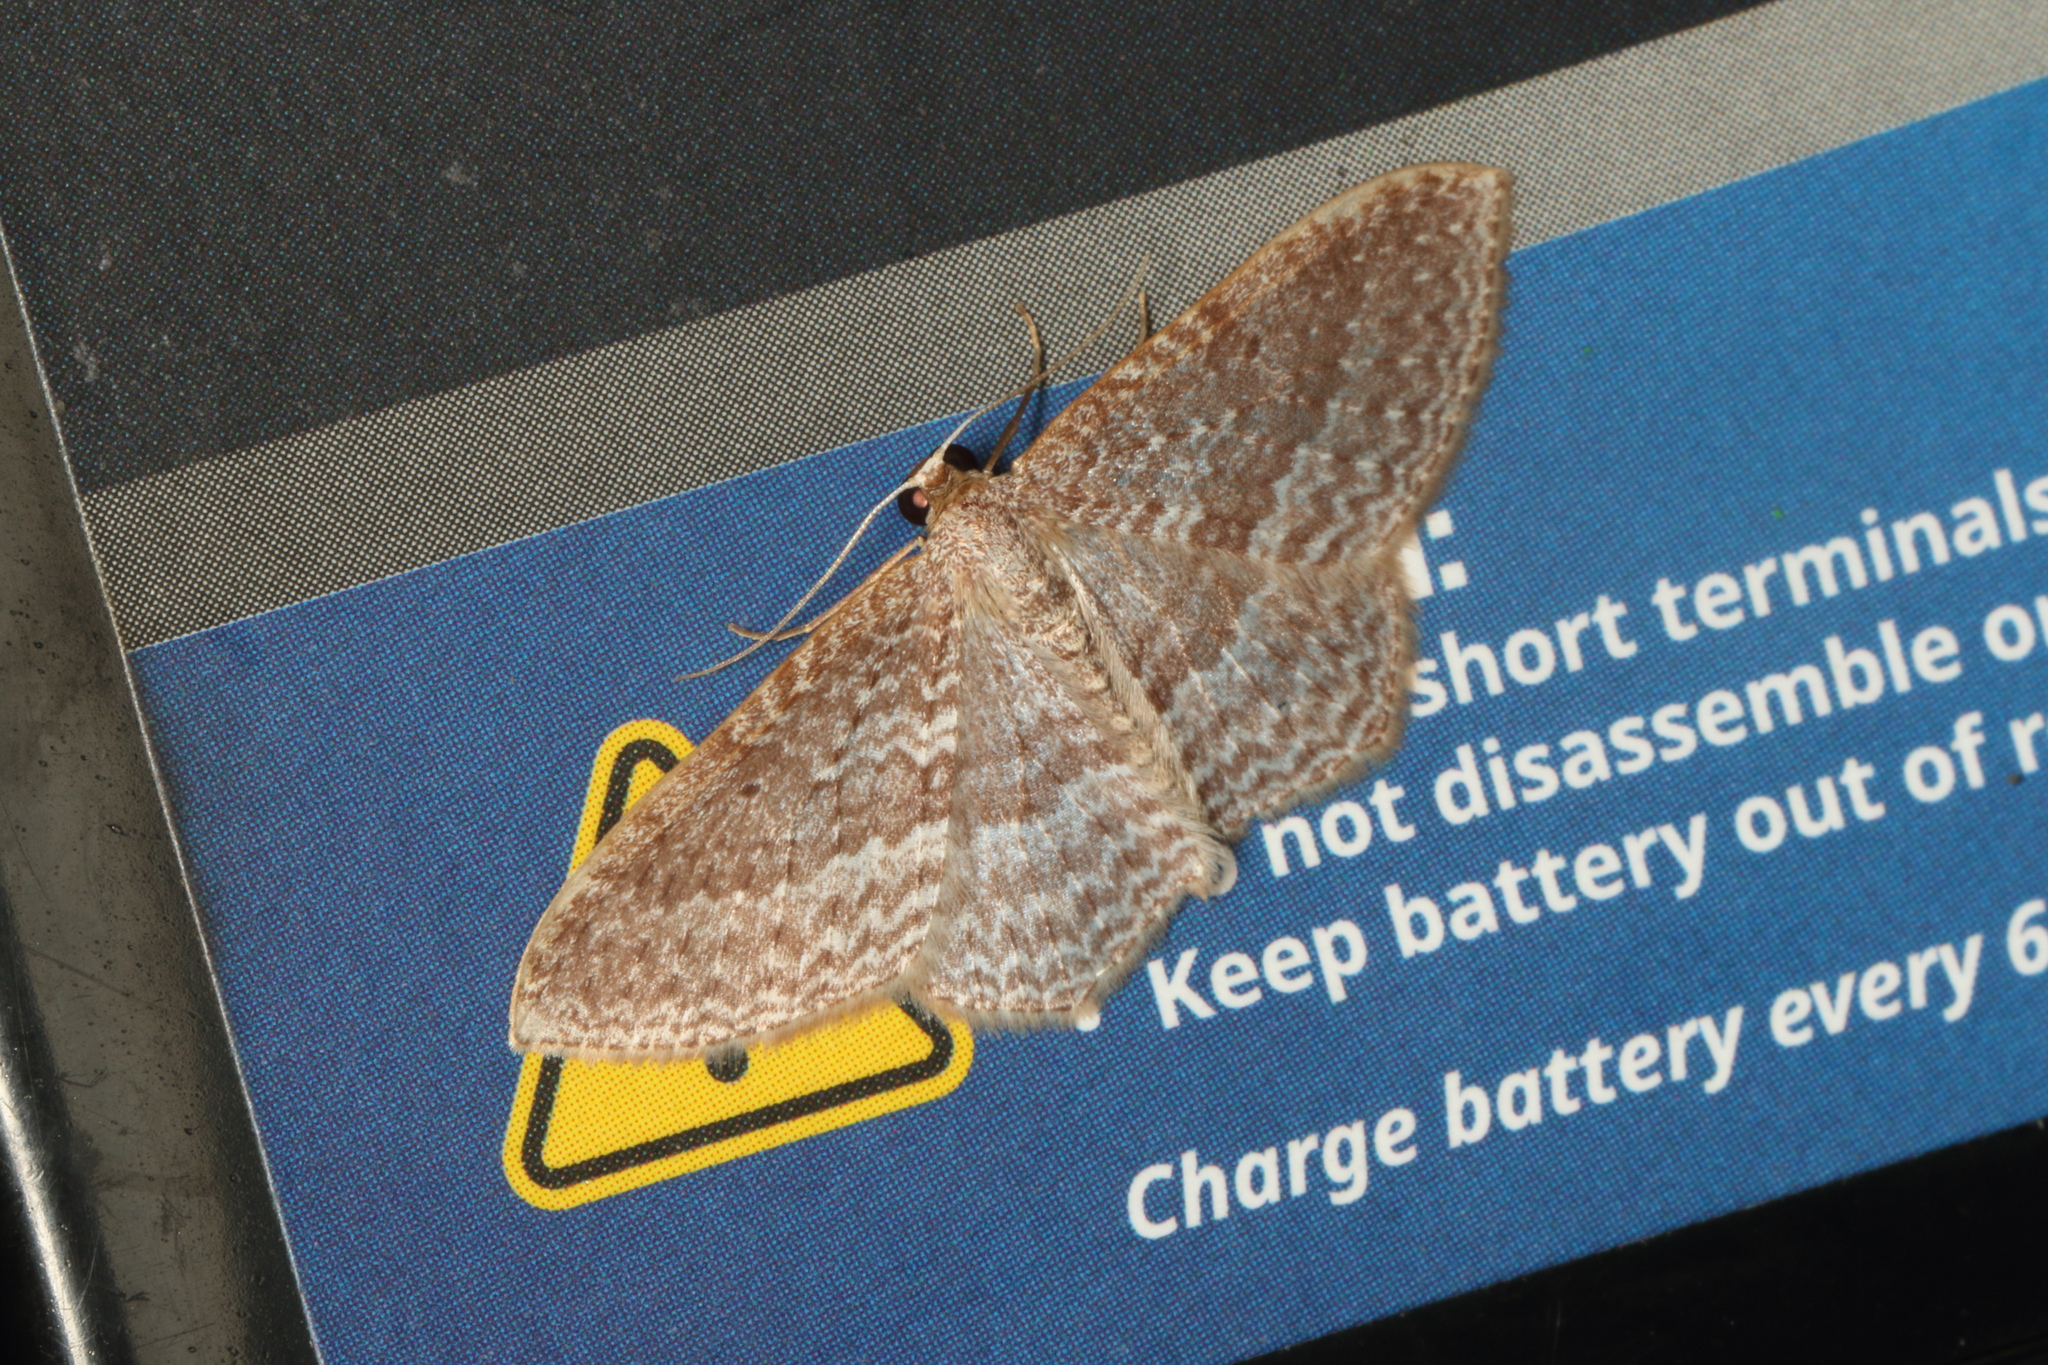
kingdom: Animalia
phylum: Arthropoda
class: Insecta
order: Lepidoptera
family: Geometridae
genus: Poecilasthena
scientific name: Poecilasthena subpurpureata
